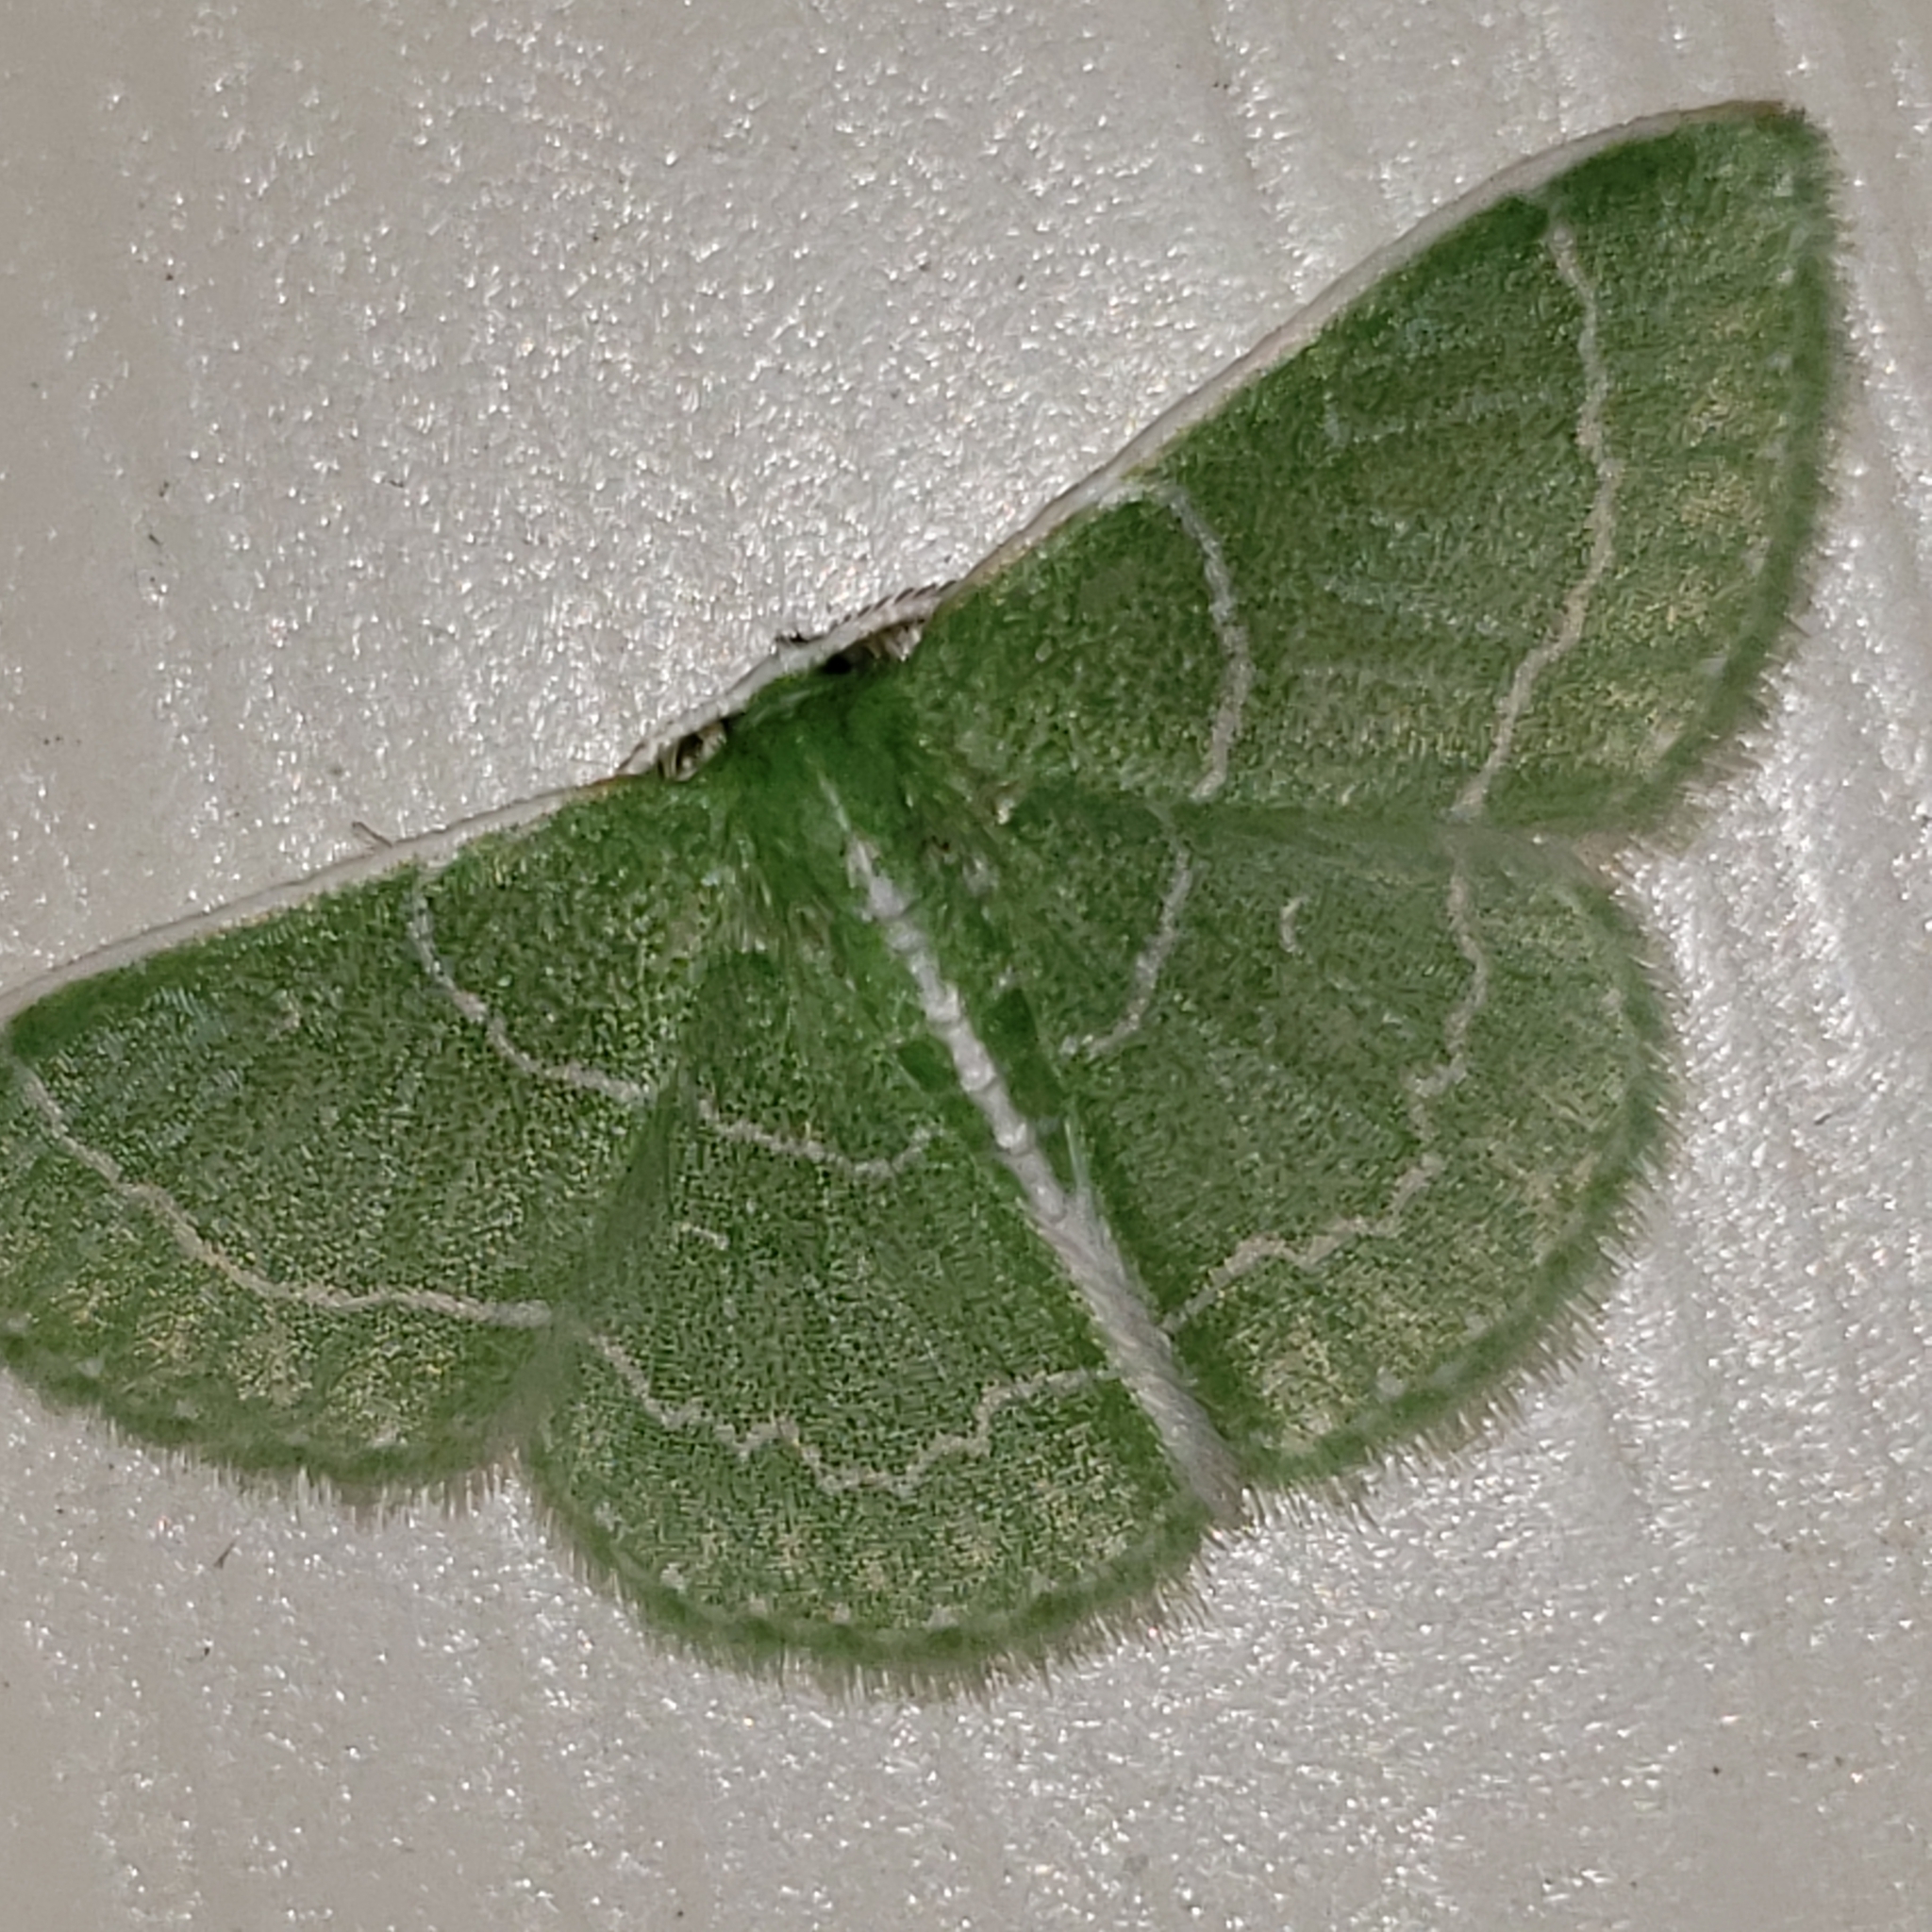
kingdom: Animalia
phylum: Arthropoda
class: Insecta
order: Lepidoptera
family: Geometridae
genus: Synchlora
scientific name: Synchlora aerata
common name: Wavy-lined emerald
